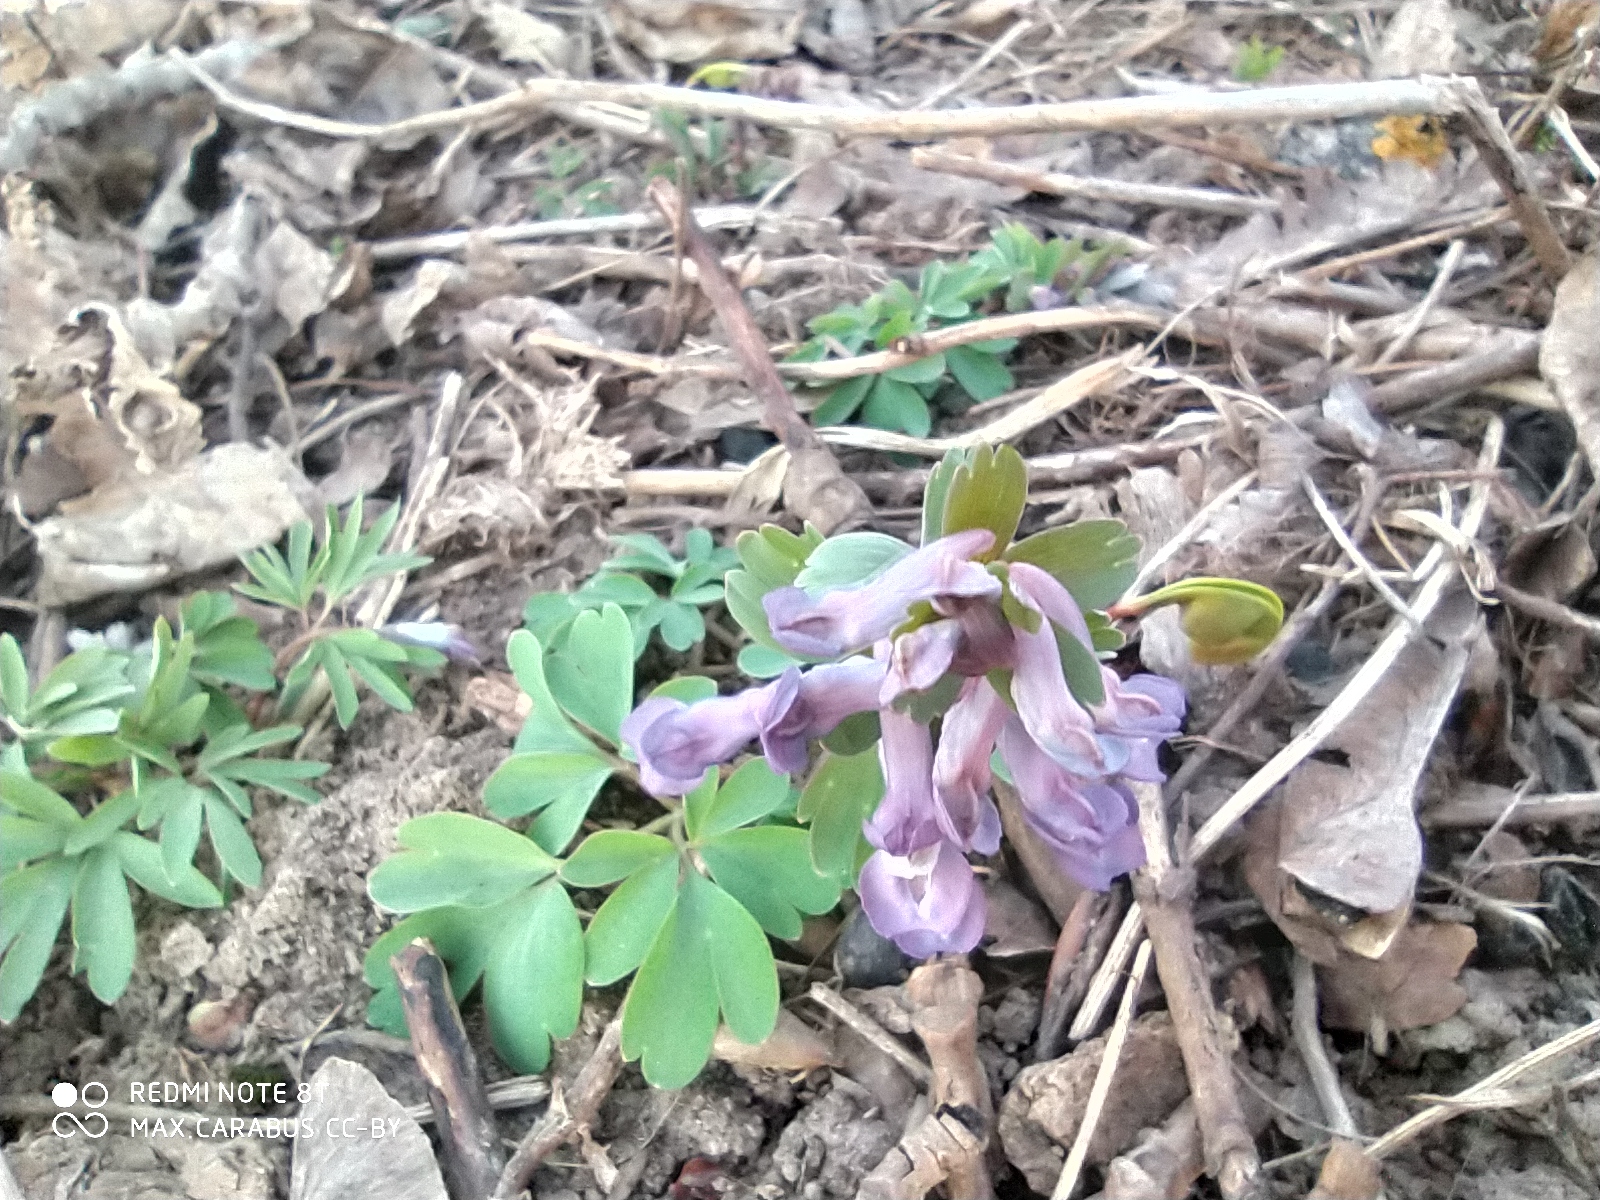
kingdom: Plantae
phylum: Tracheophyta
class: Magnoliopsida
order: Ranunculales
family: Papaveraceae
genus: Corydalis
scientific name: Corydalis solida
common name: Bird-in-a-bush
